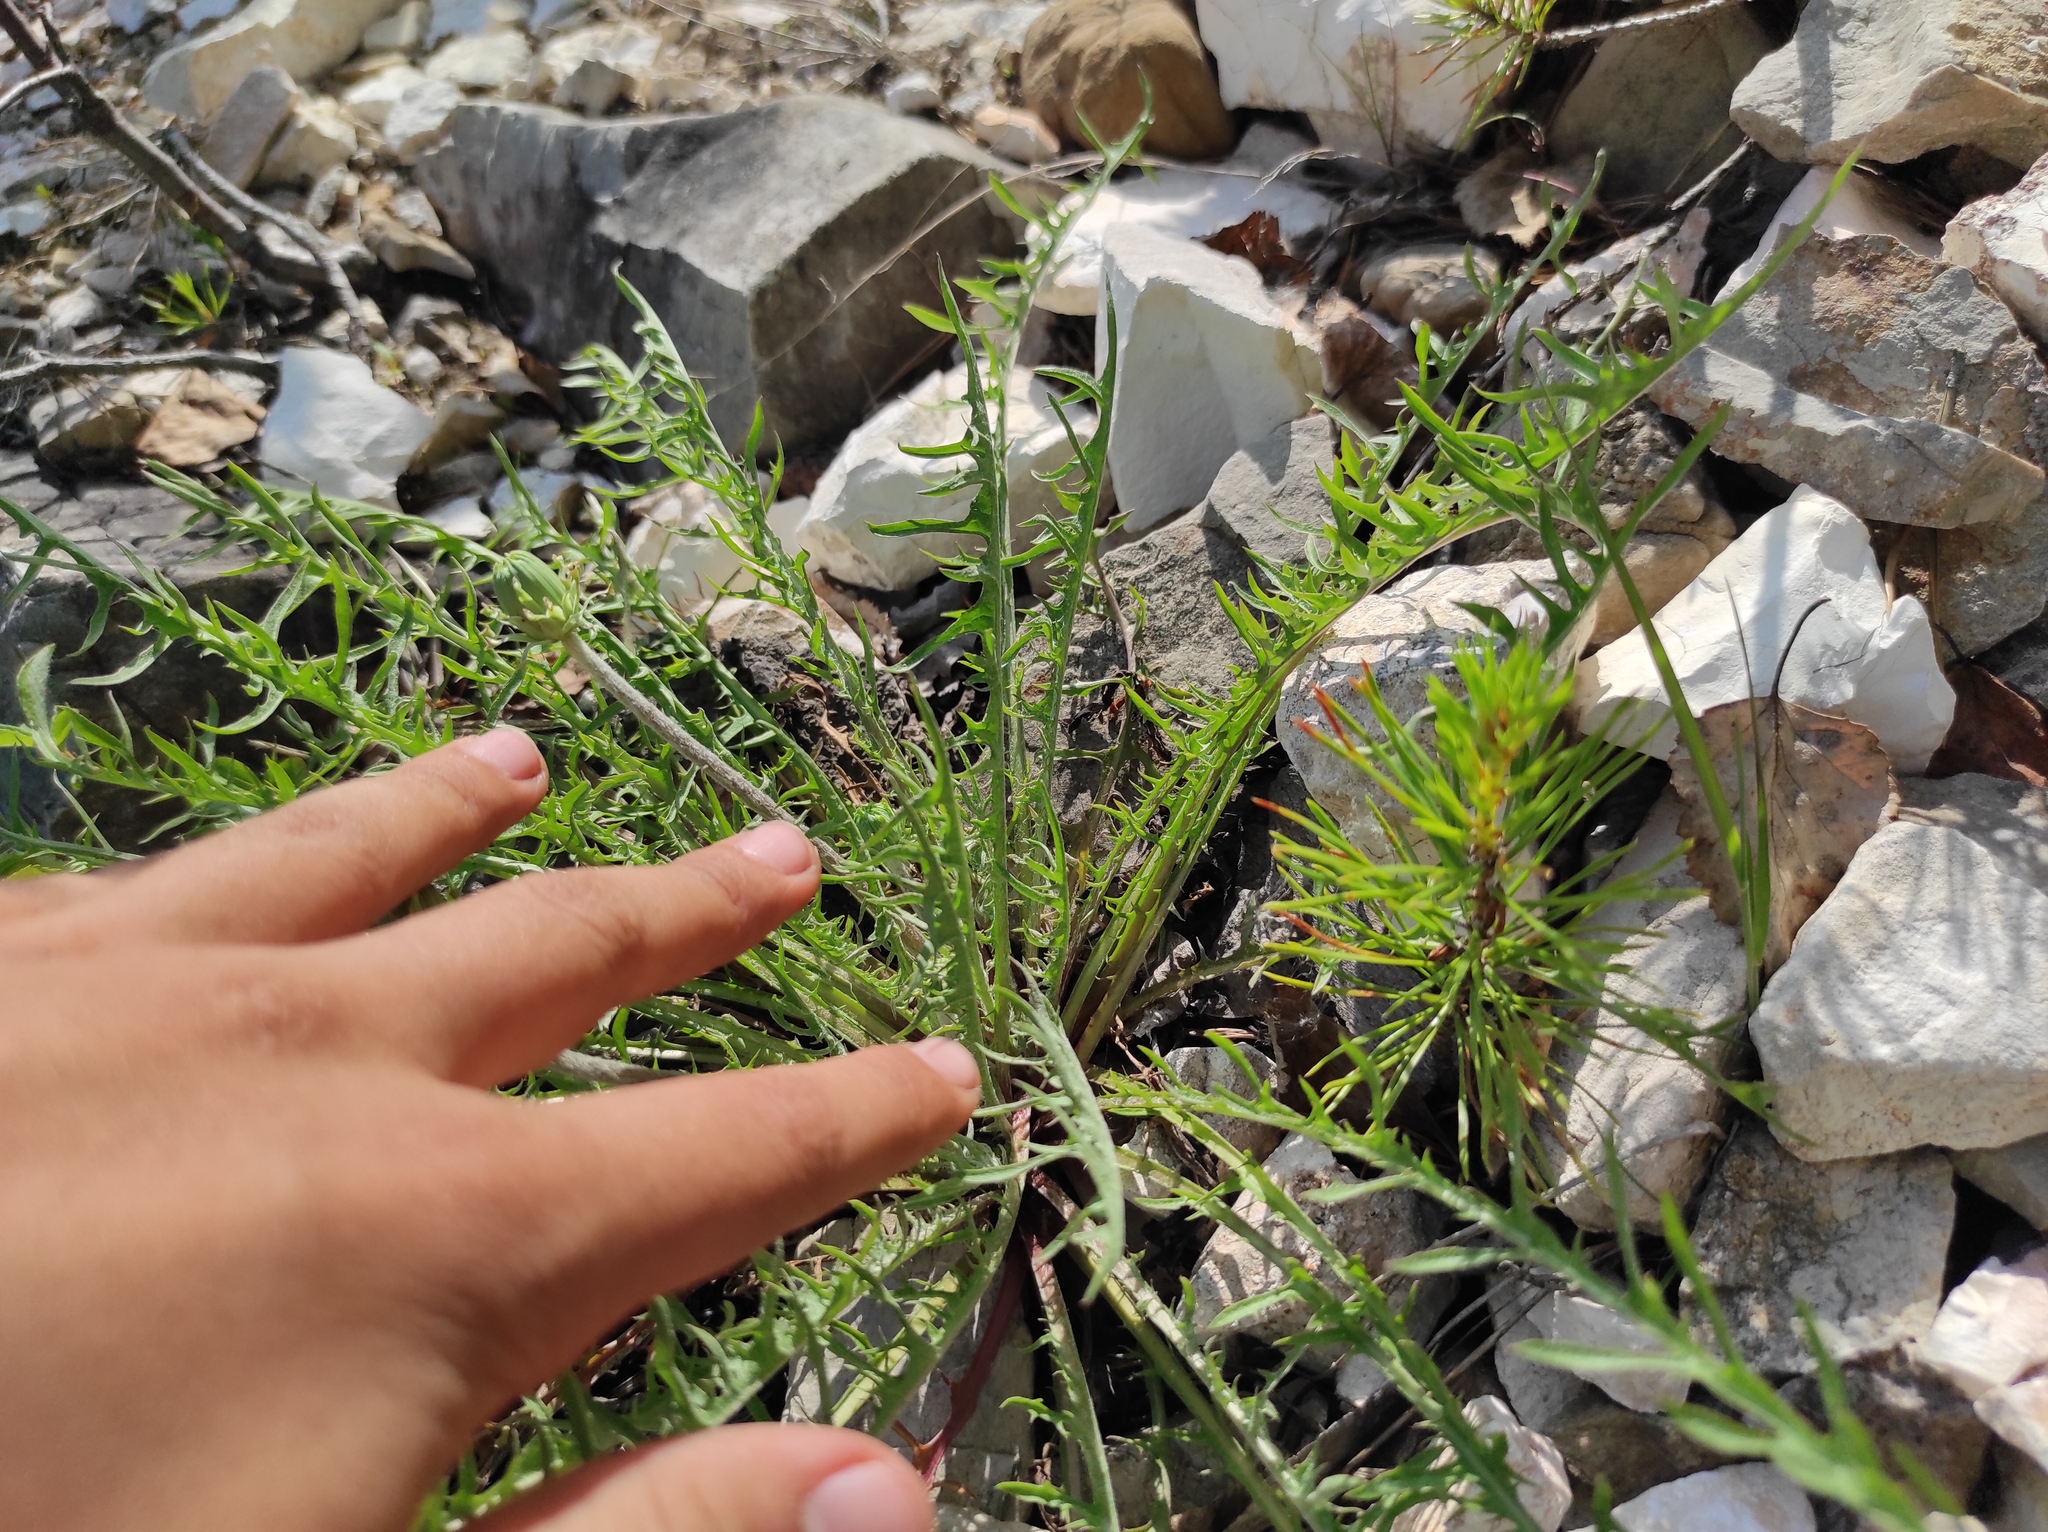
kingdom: Plantae
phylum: Tracheophyta
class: Pinopsida
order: Pinales
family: Pinaceae
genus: Pinus
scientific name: Pinus sylvestris
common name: Scots pine
